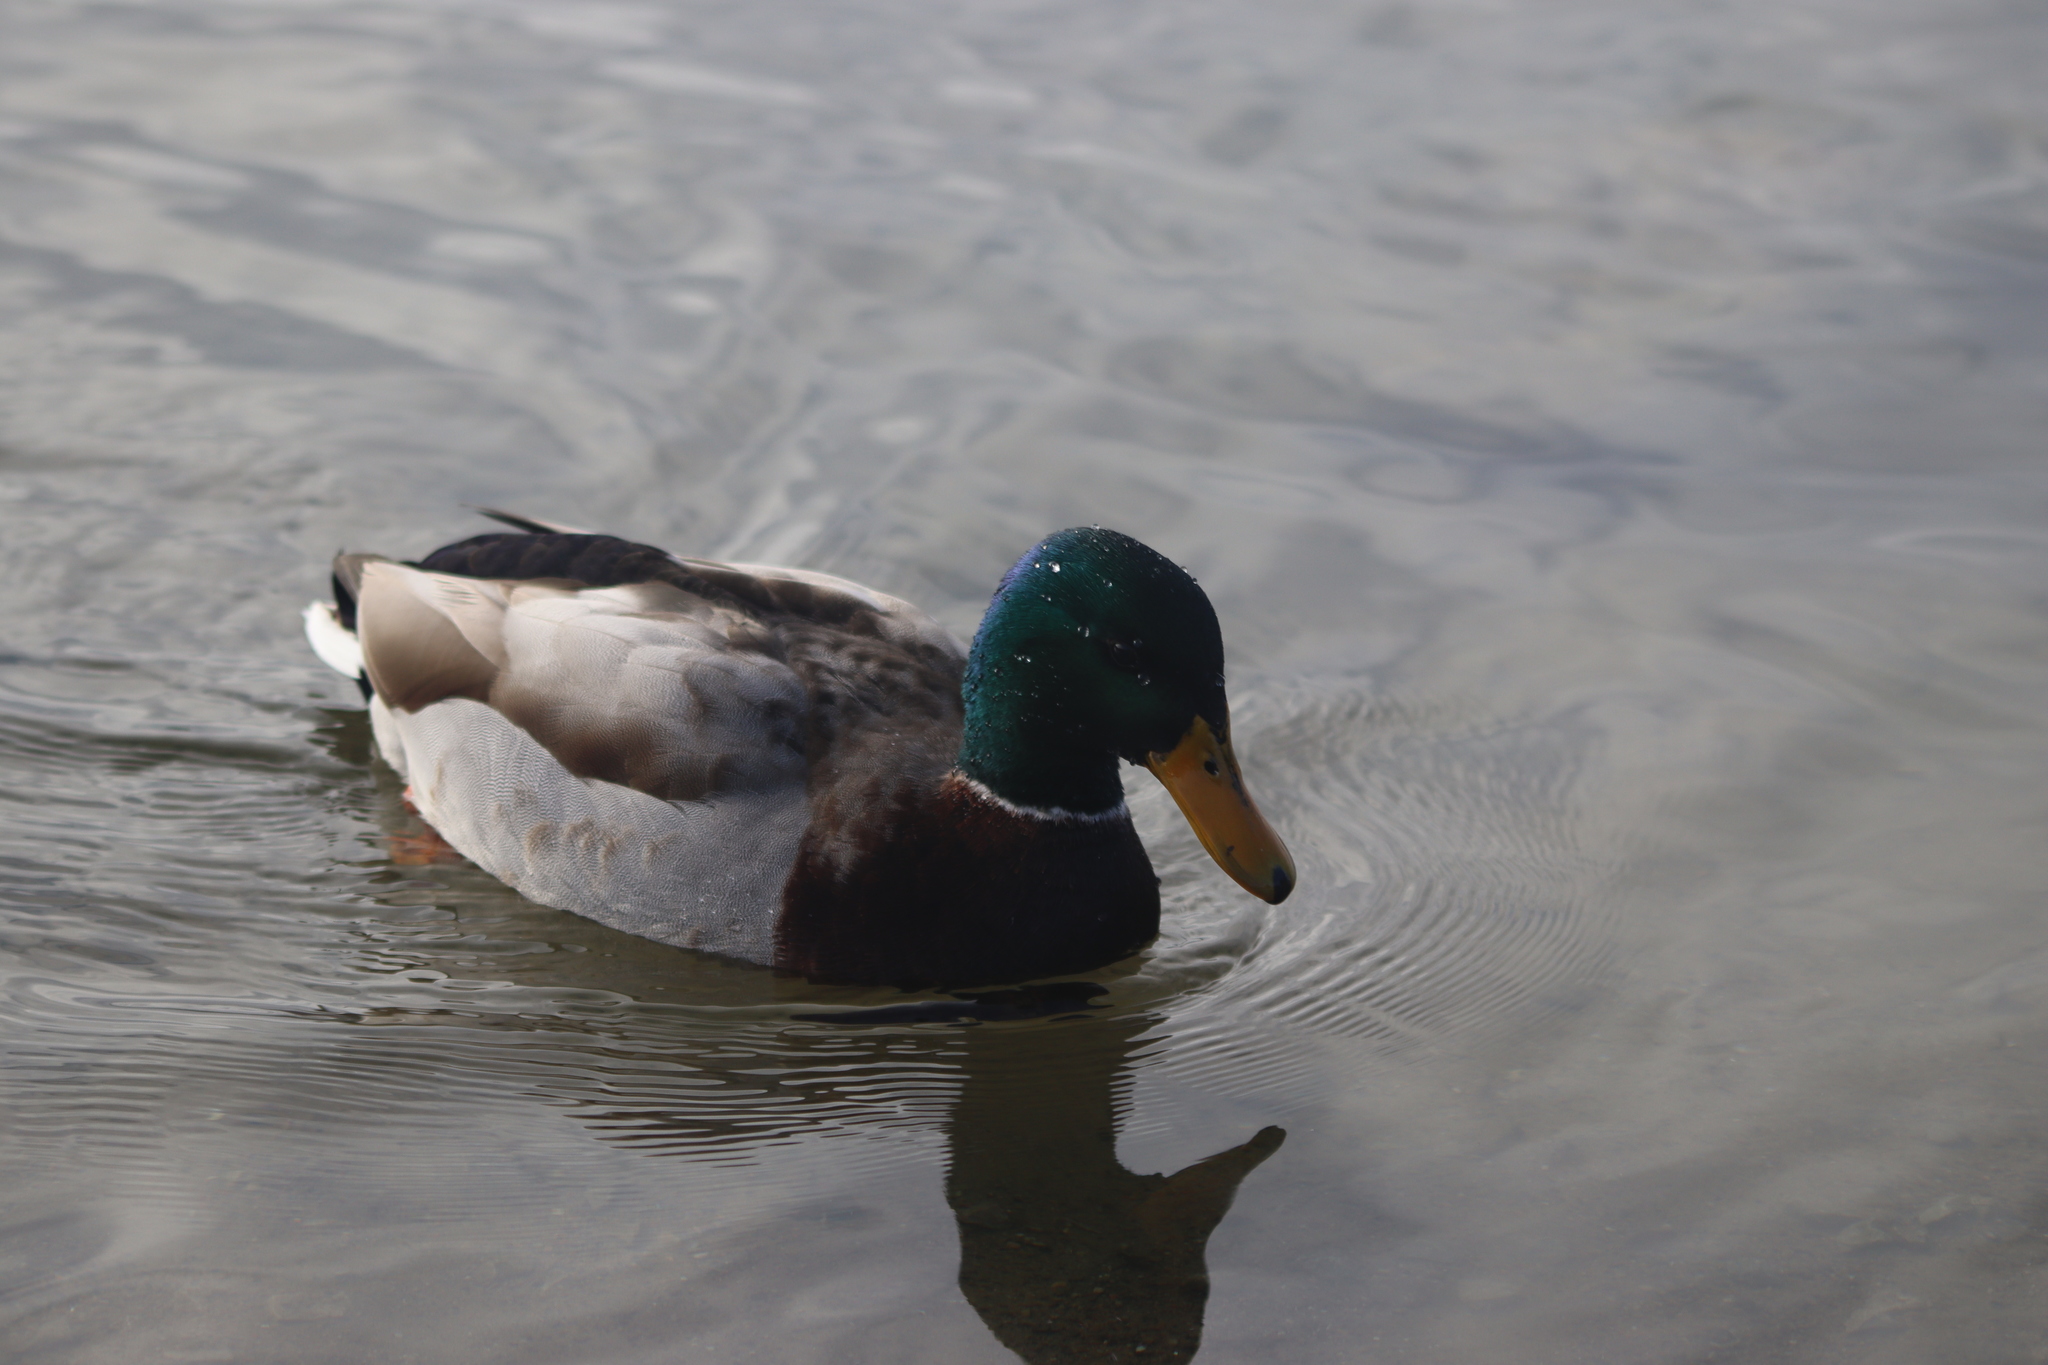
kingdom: Animalia
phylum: Chordata
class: Aves
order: Anseriformes
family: Anatidae
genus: Anas
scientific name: Anas platyrhynchos
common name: Mallard
